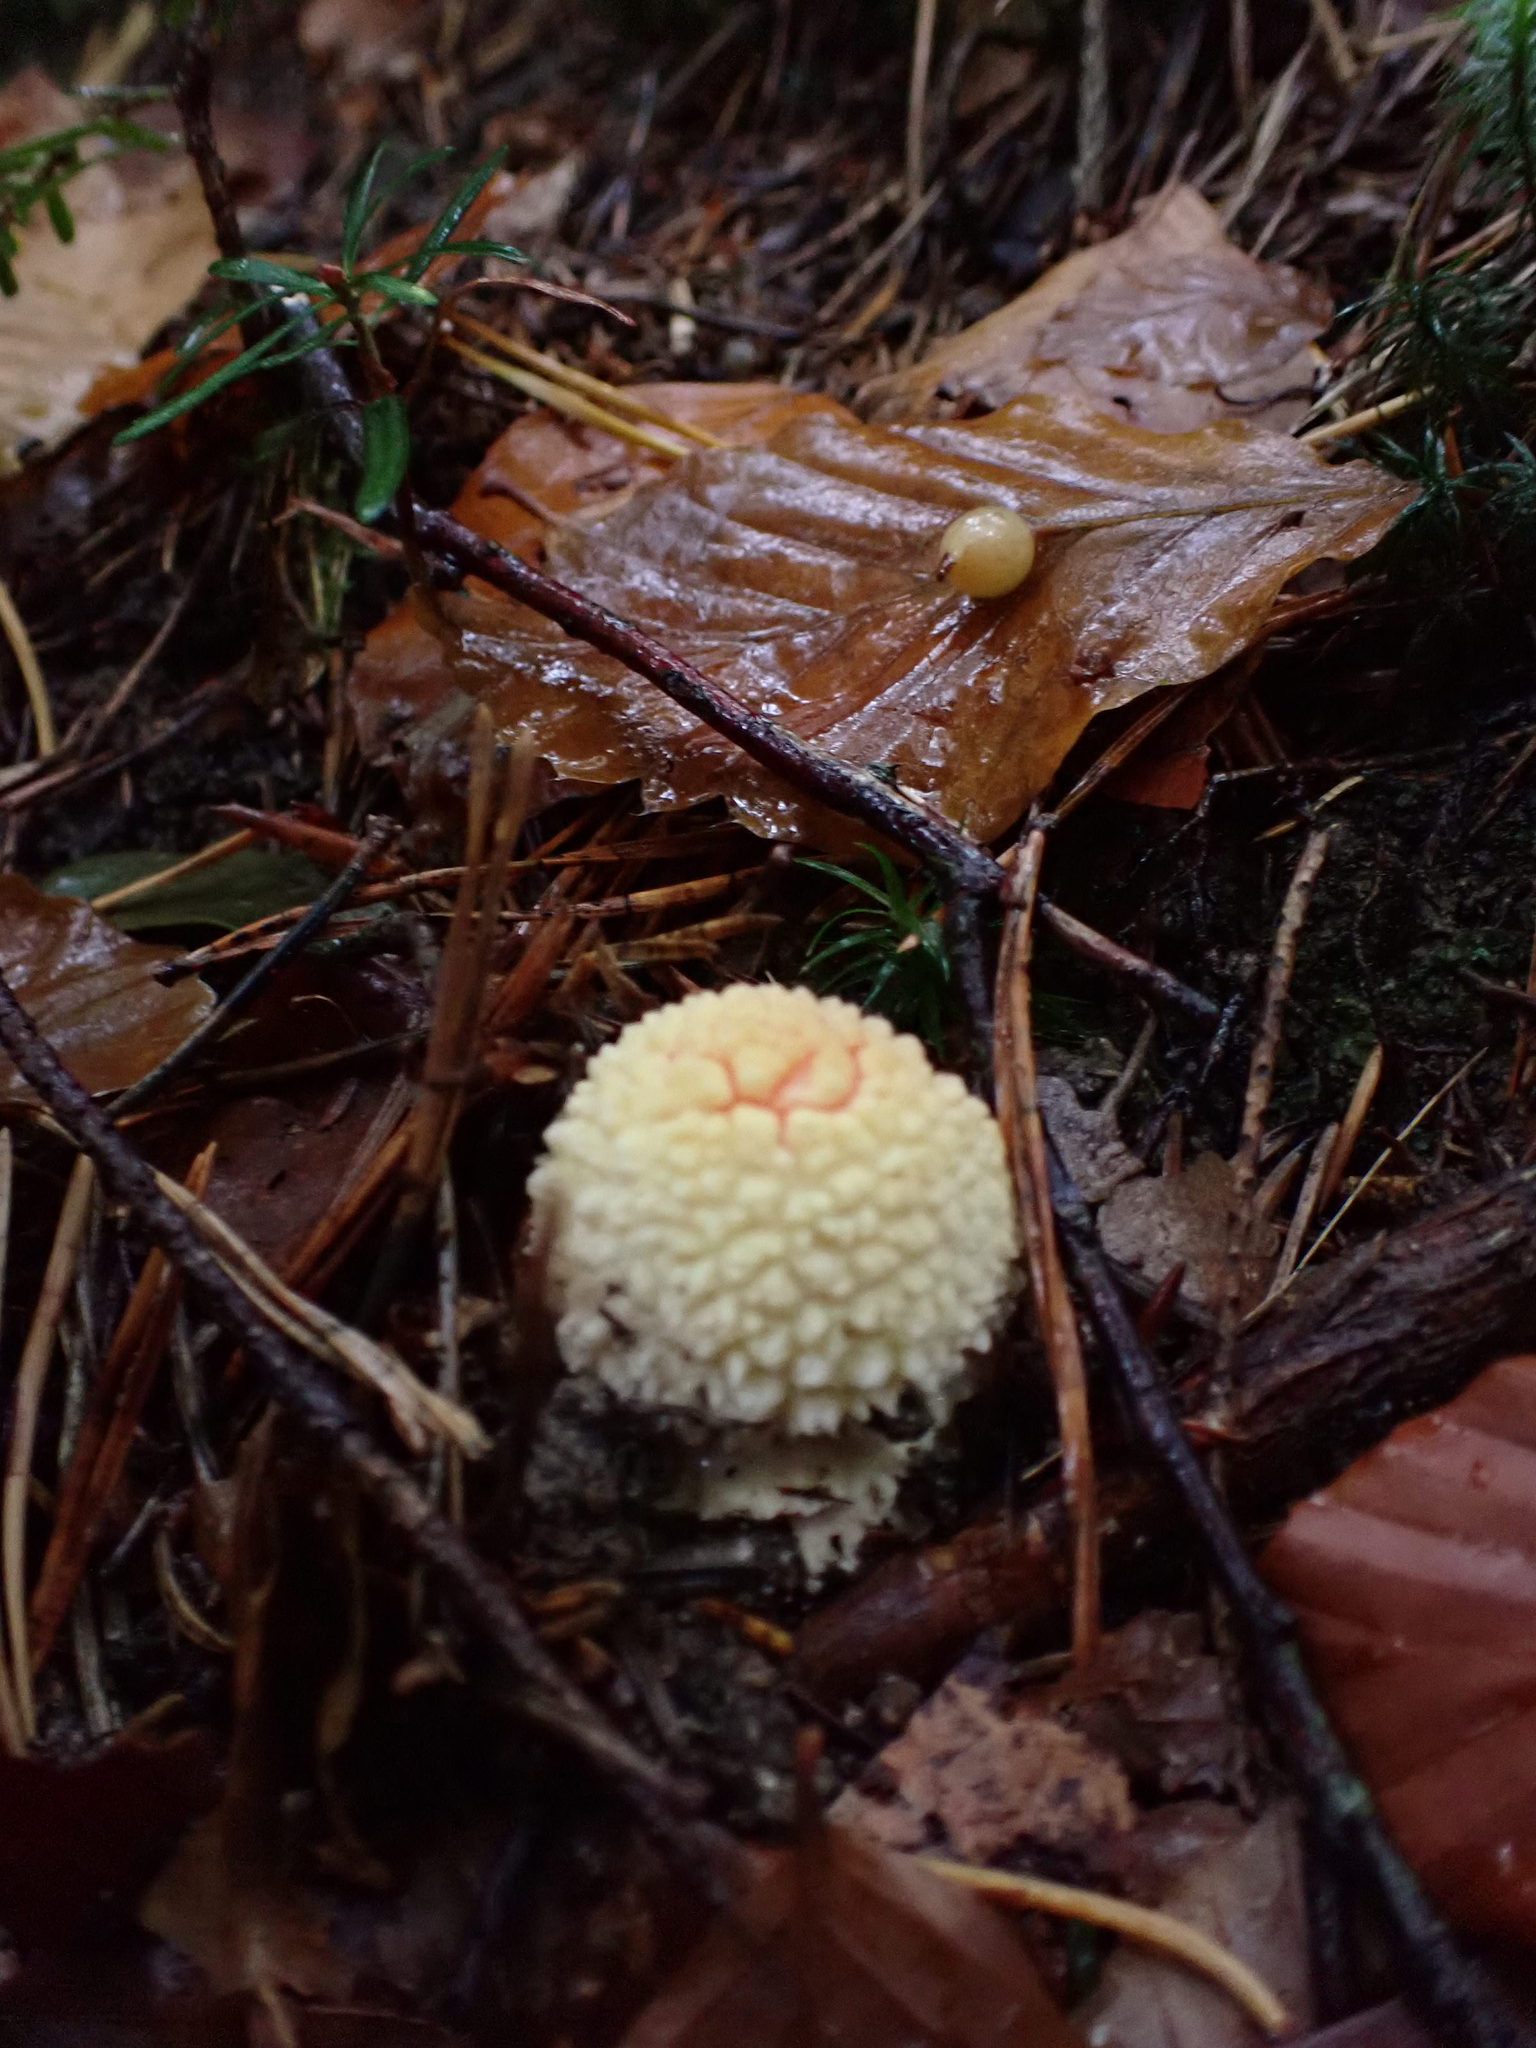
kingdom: Fungi
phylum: Basidiomycota
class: Agaricomycetes
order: Agaricales
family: Amanitaceae
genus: Amanita
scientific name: Amanita muscaria
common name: Fly agaric
